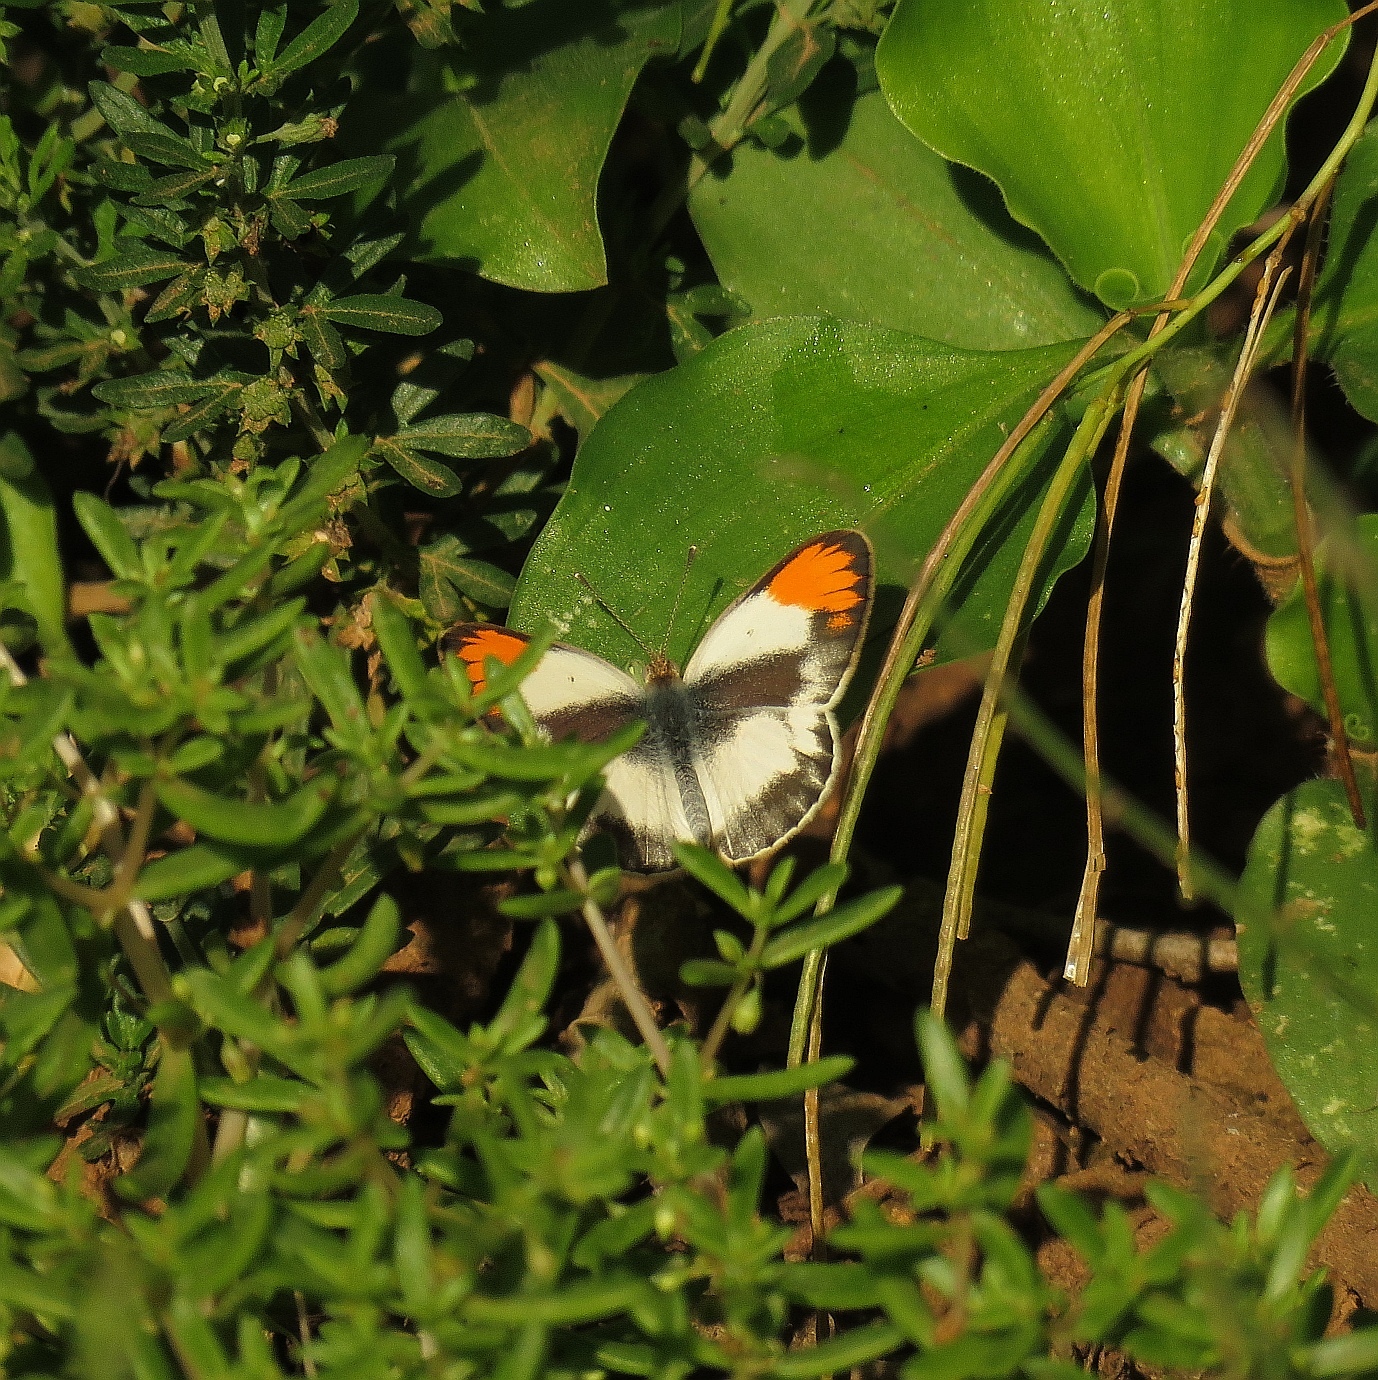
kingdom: Animalia
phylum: Arthropoda
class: Insecta
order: Lepidoptera
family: Pieridae
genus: Colotis
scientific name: Colotis evagore
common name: Desert orange-tip
